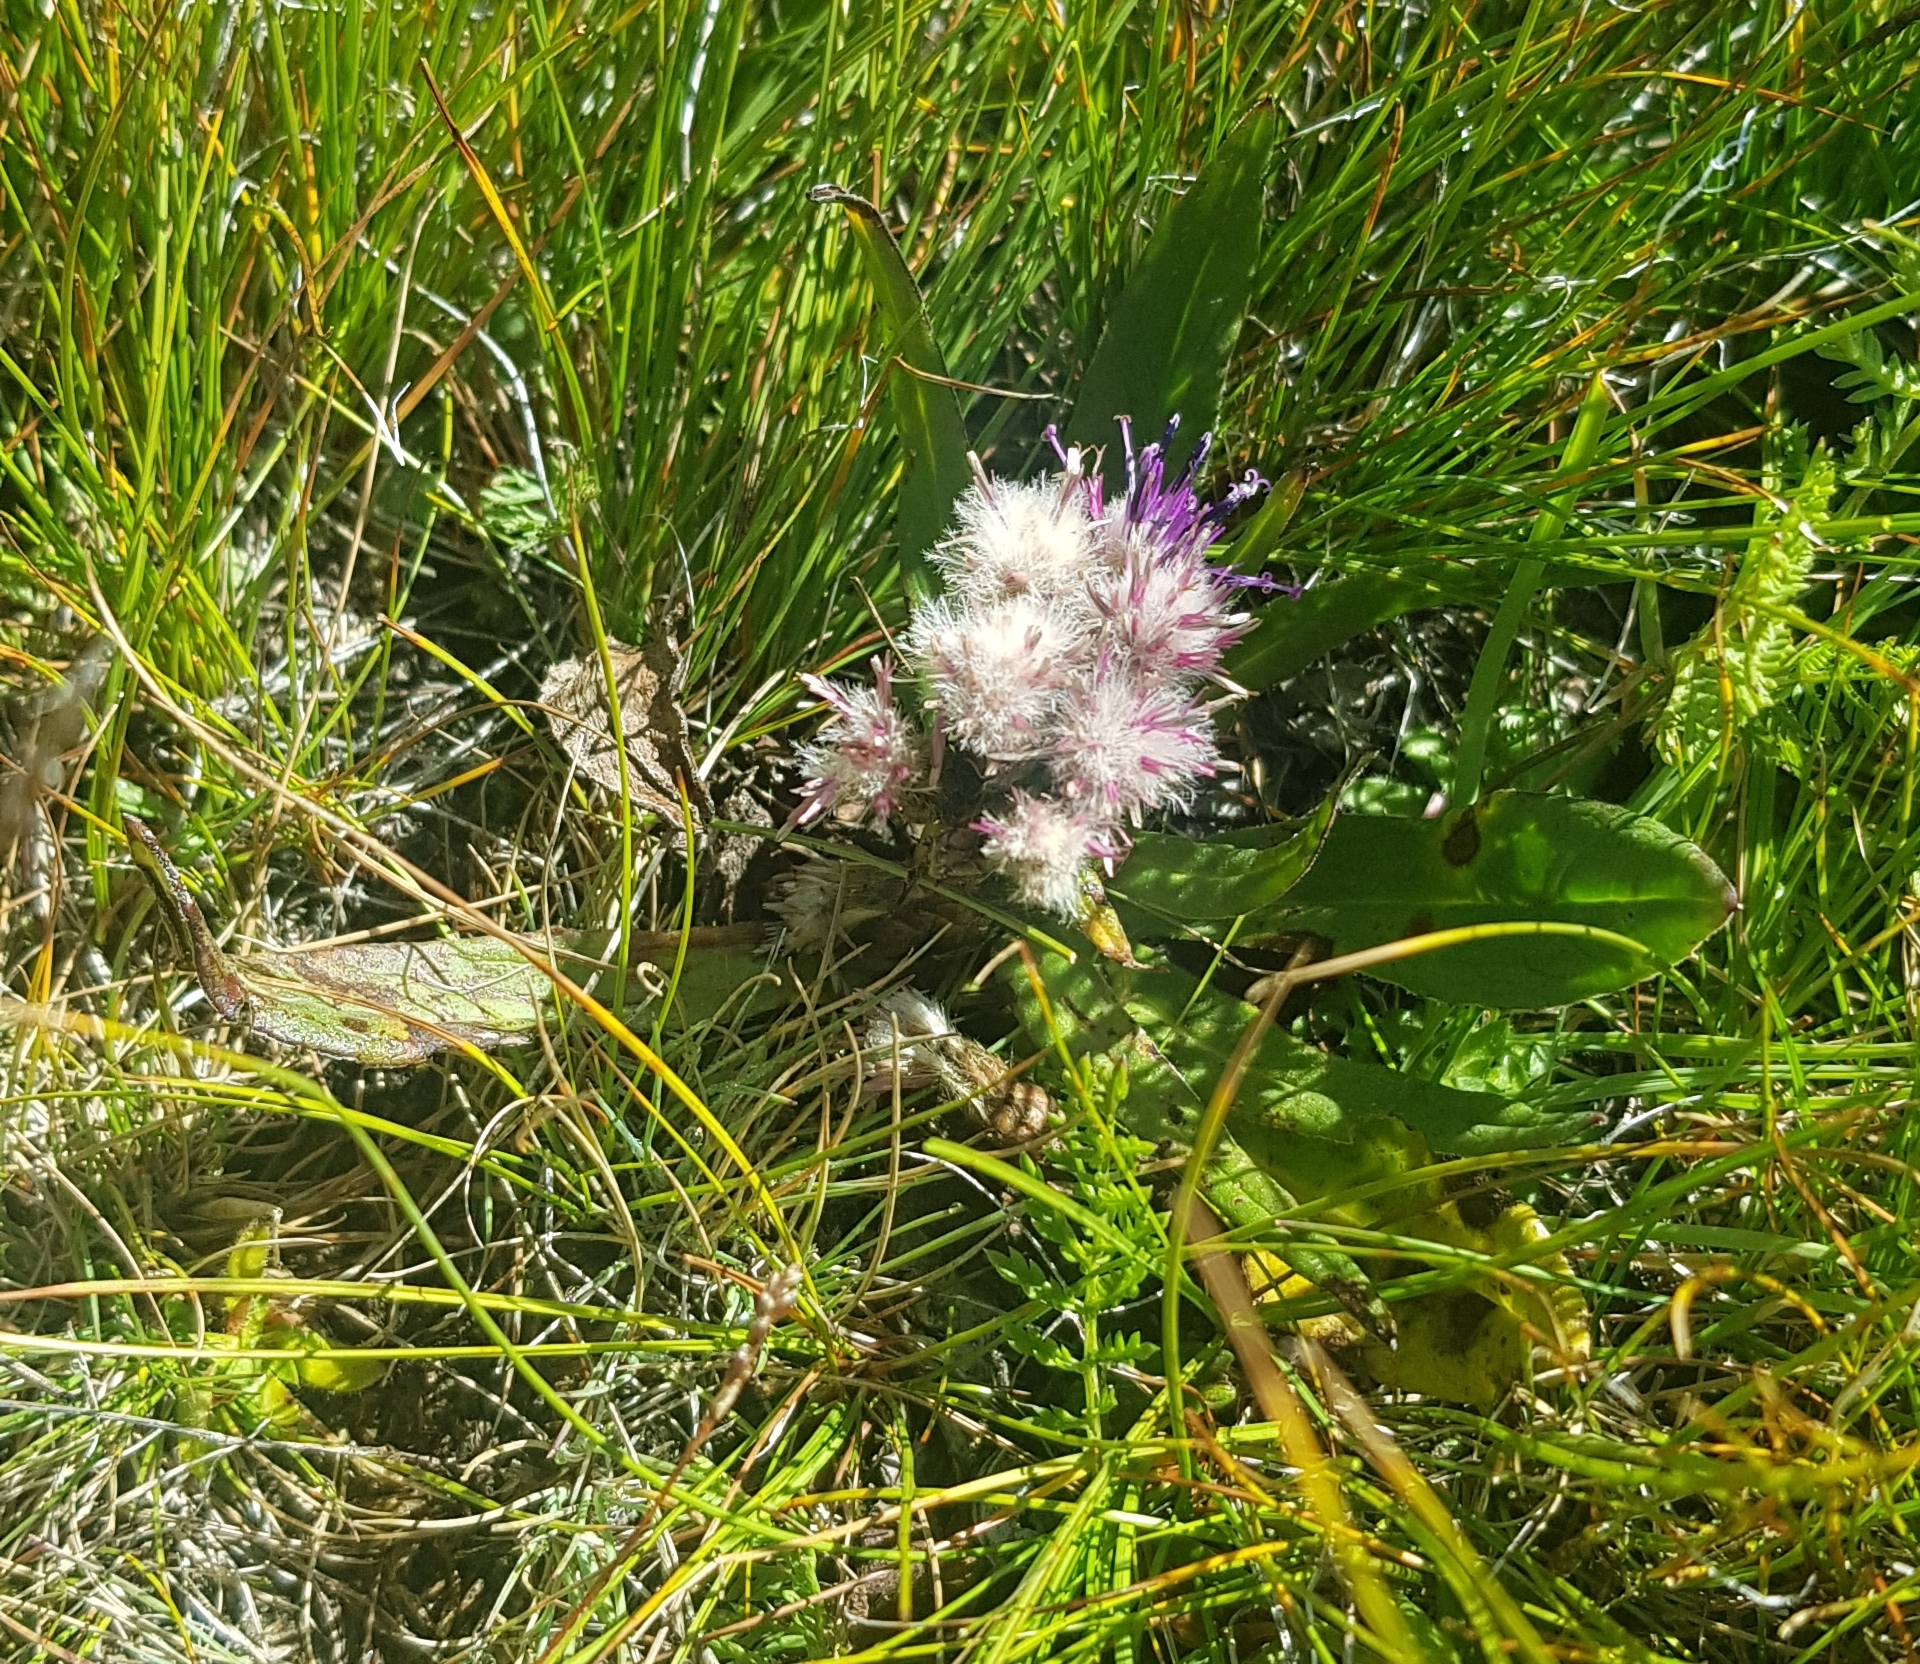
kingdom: Plantae
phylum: Tracheophyta
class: Magnoliopsida
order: Asterales
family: Asteraceae
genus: Leontopodium
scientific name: Leontopodium leontopodioides
